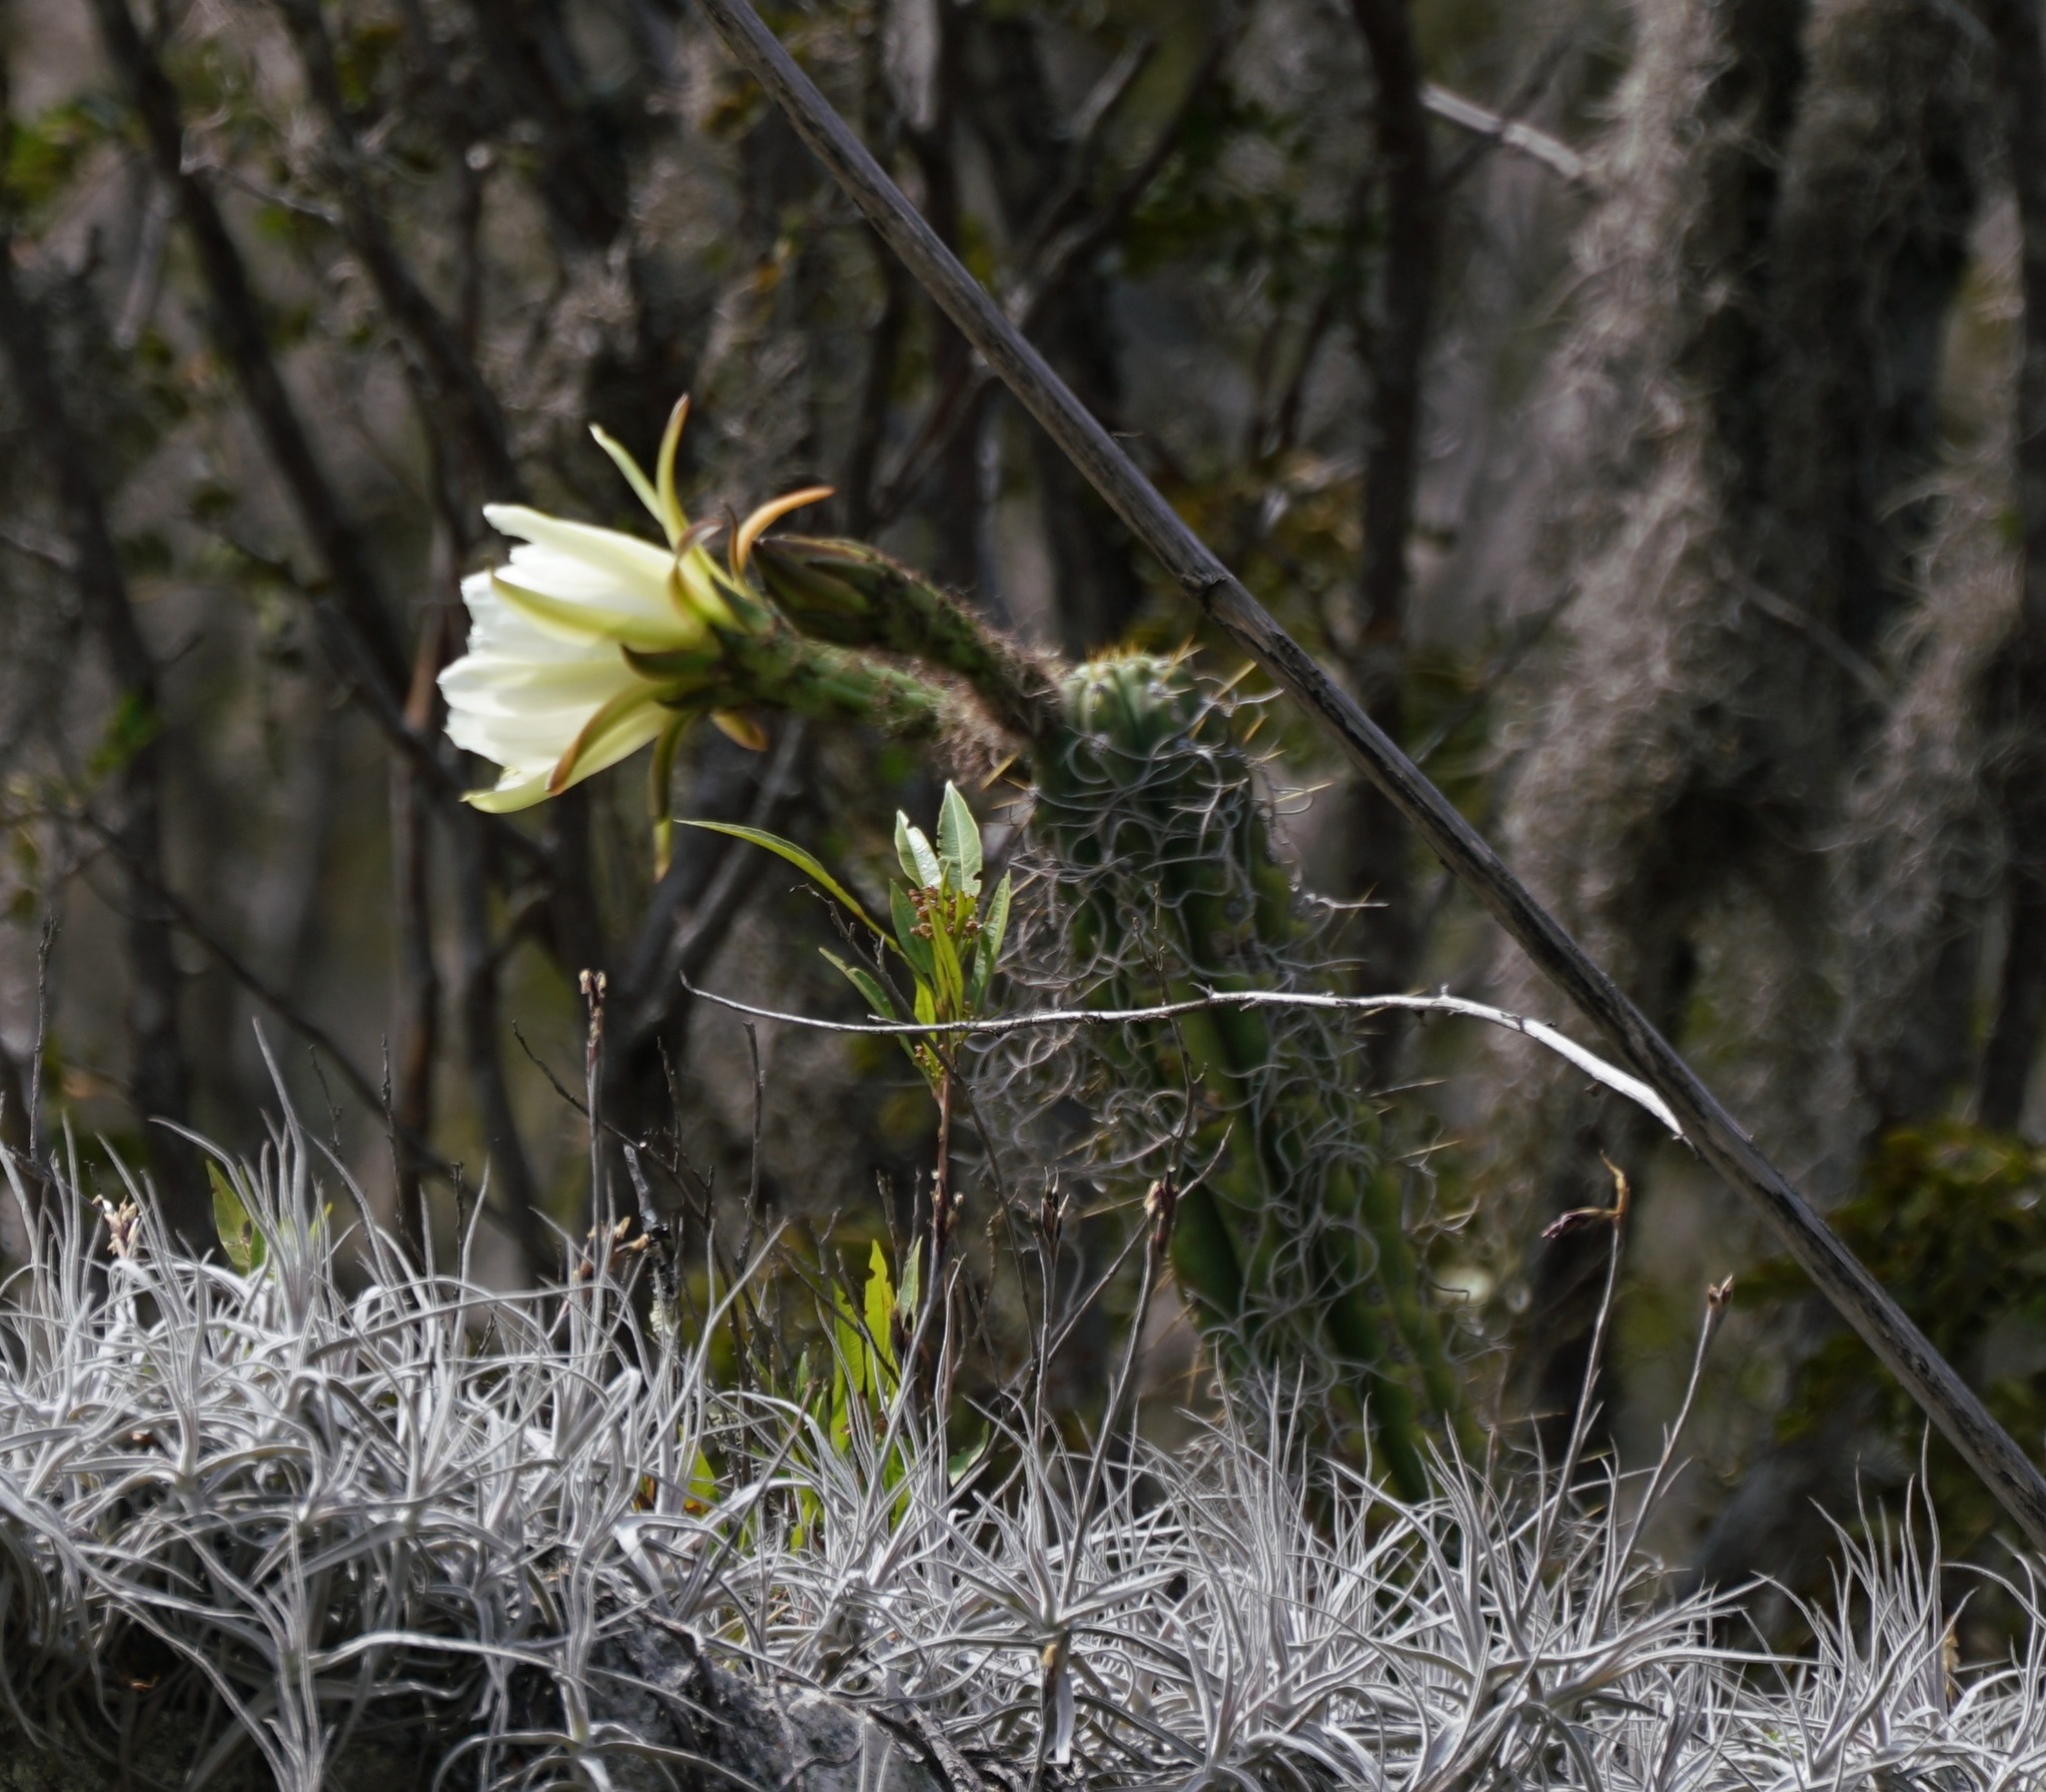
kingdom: Plantae
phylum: Tracheophyta
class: Magnoliopsida
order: Caryophyllales
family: Cactaceae
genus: Trichocereus
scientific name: Trichocereus cuzcoensis
